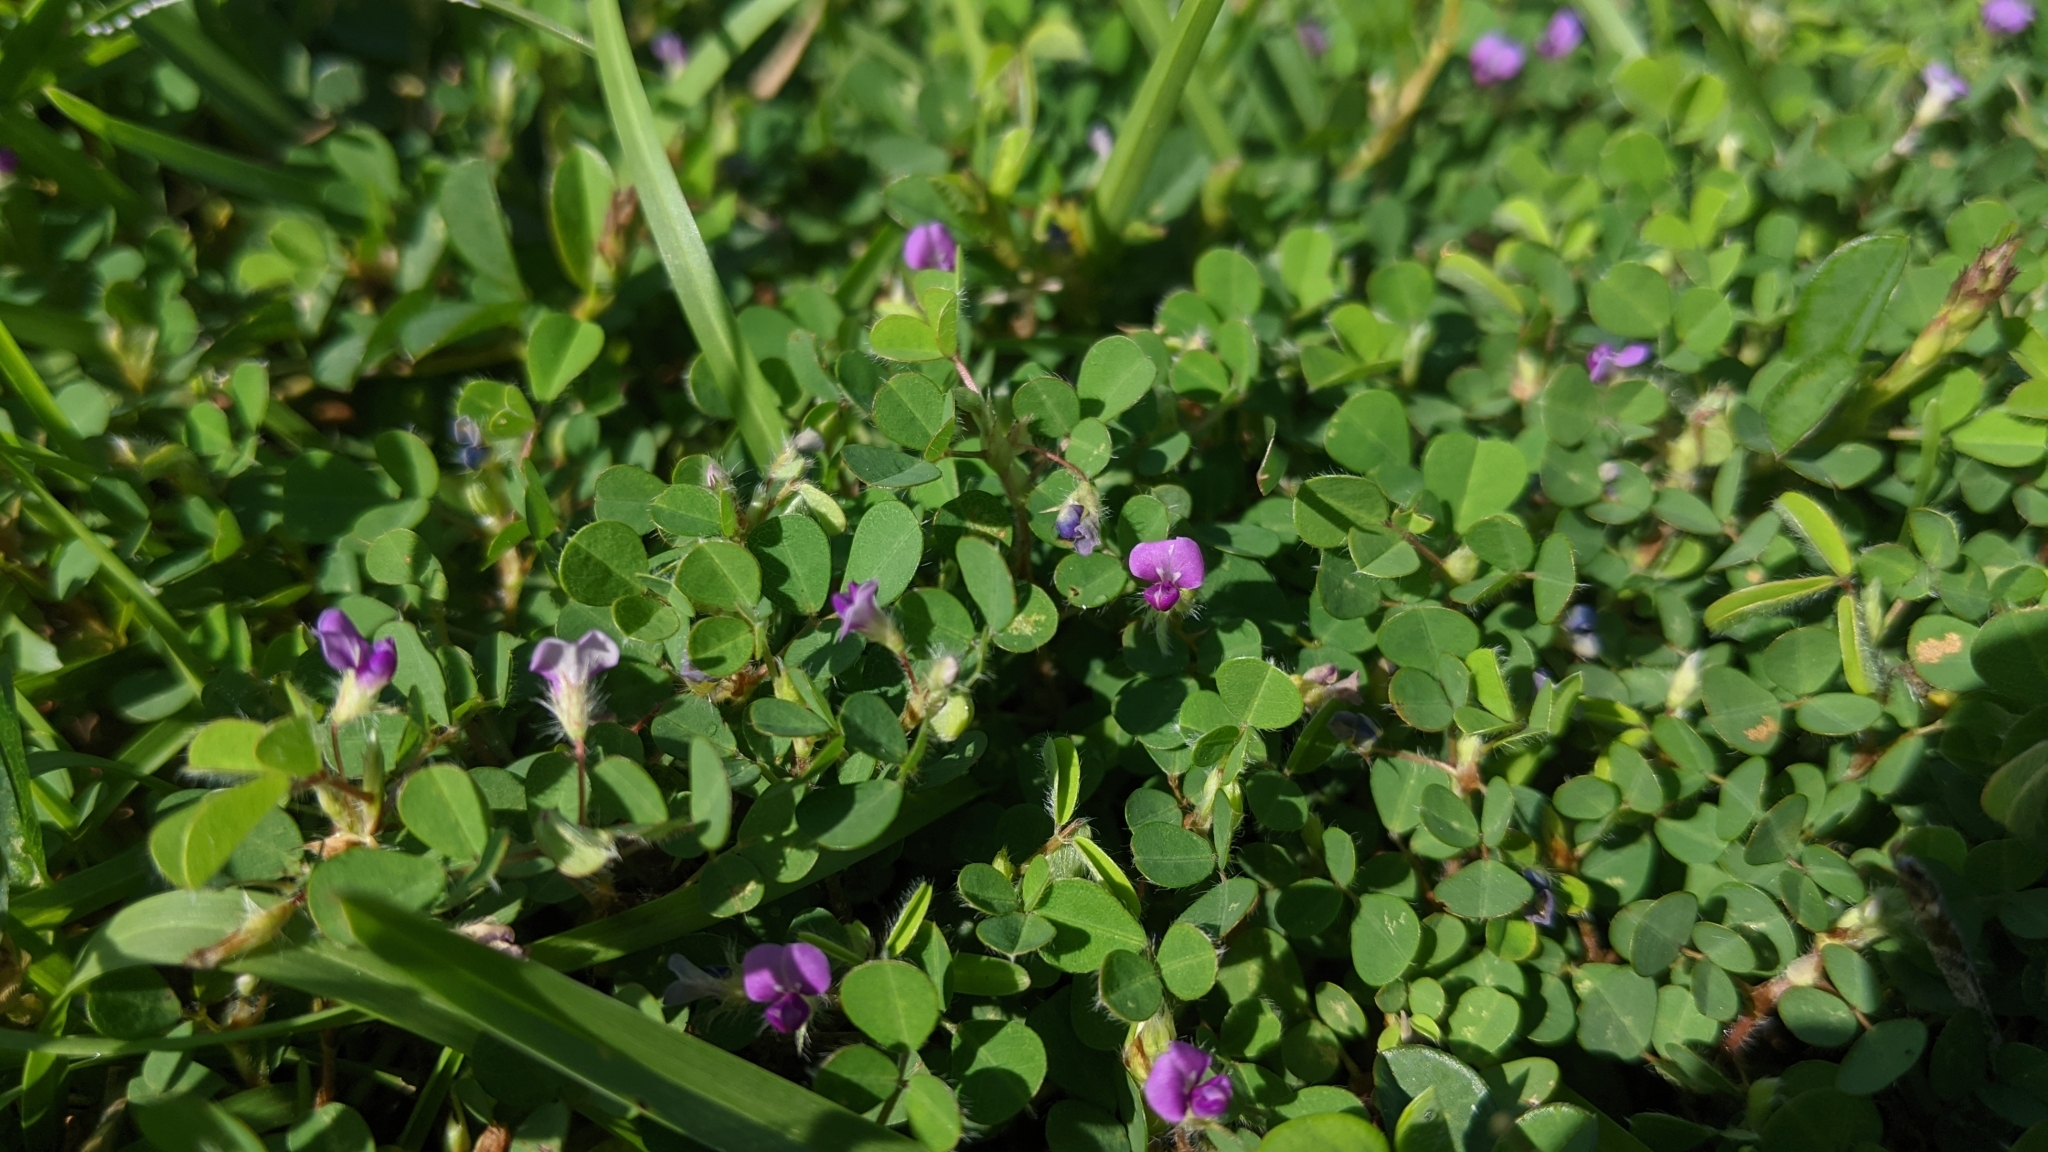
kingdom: Plantae
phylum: Tracheophyta
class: Magnoliopsida
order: Fabales
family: Fabaceae
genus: Grona
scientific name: Grona triflora
